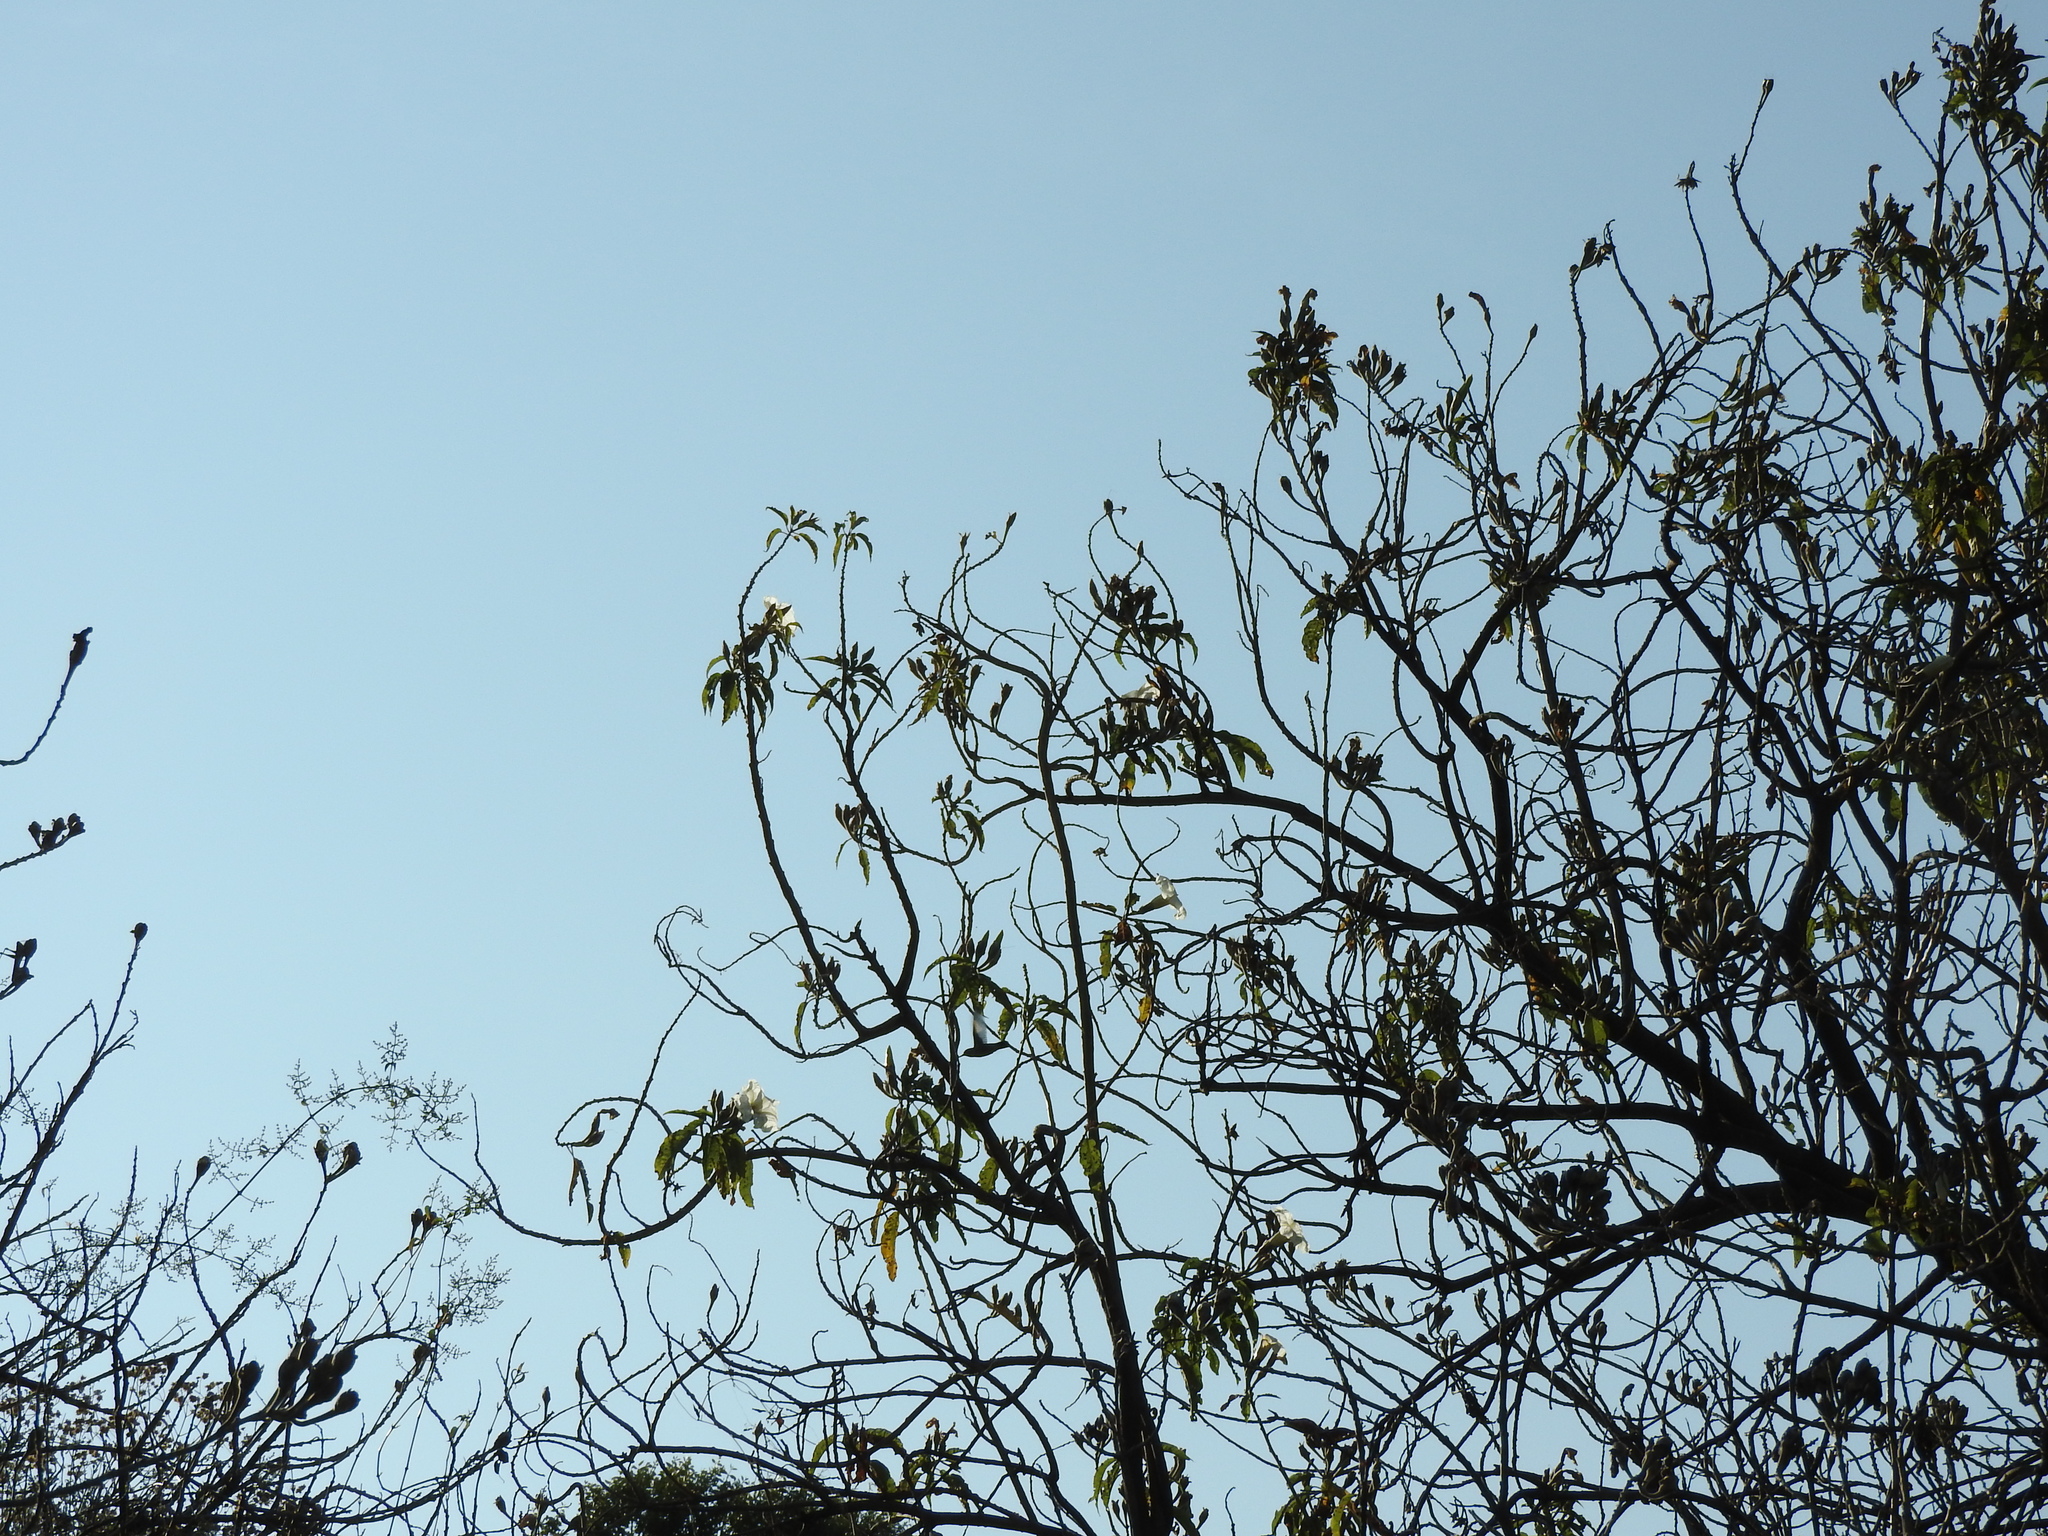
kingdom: Plantae
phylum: Tracheophyta
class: Magnoliopsida
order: Solanales
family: Convolvulaceae
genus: Ipomoea
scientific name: Ipomoea murucoides
